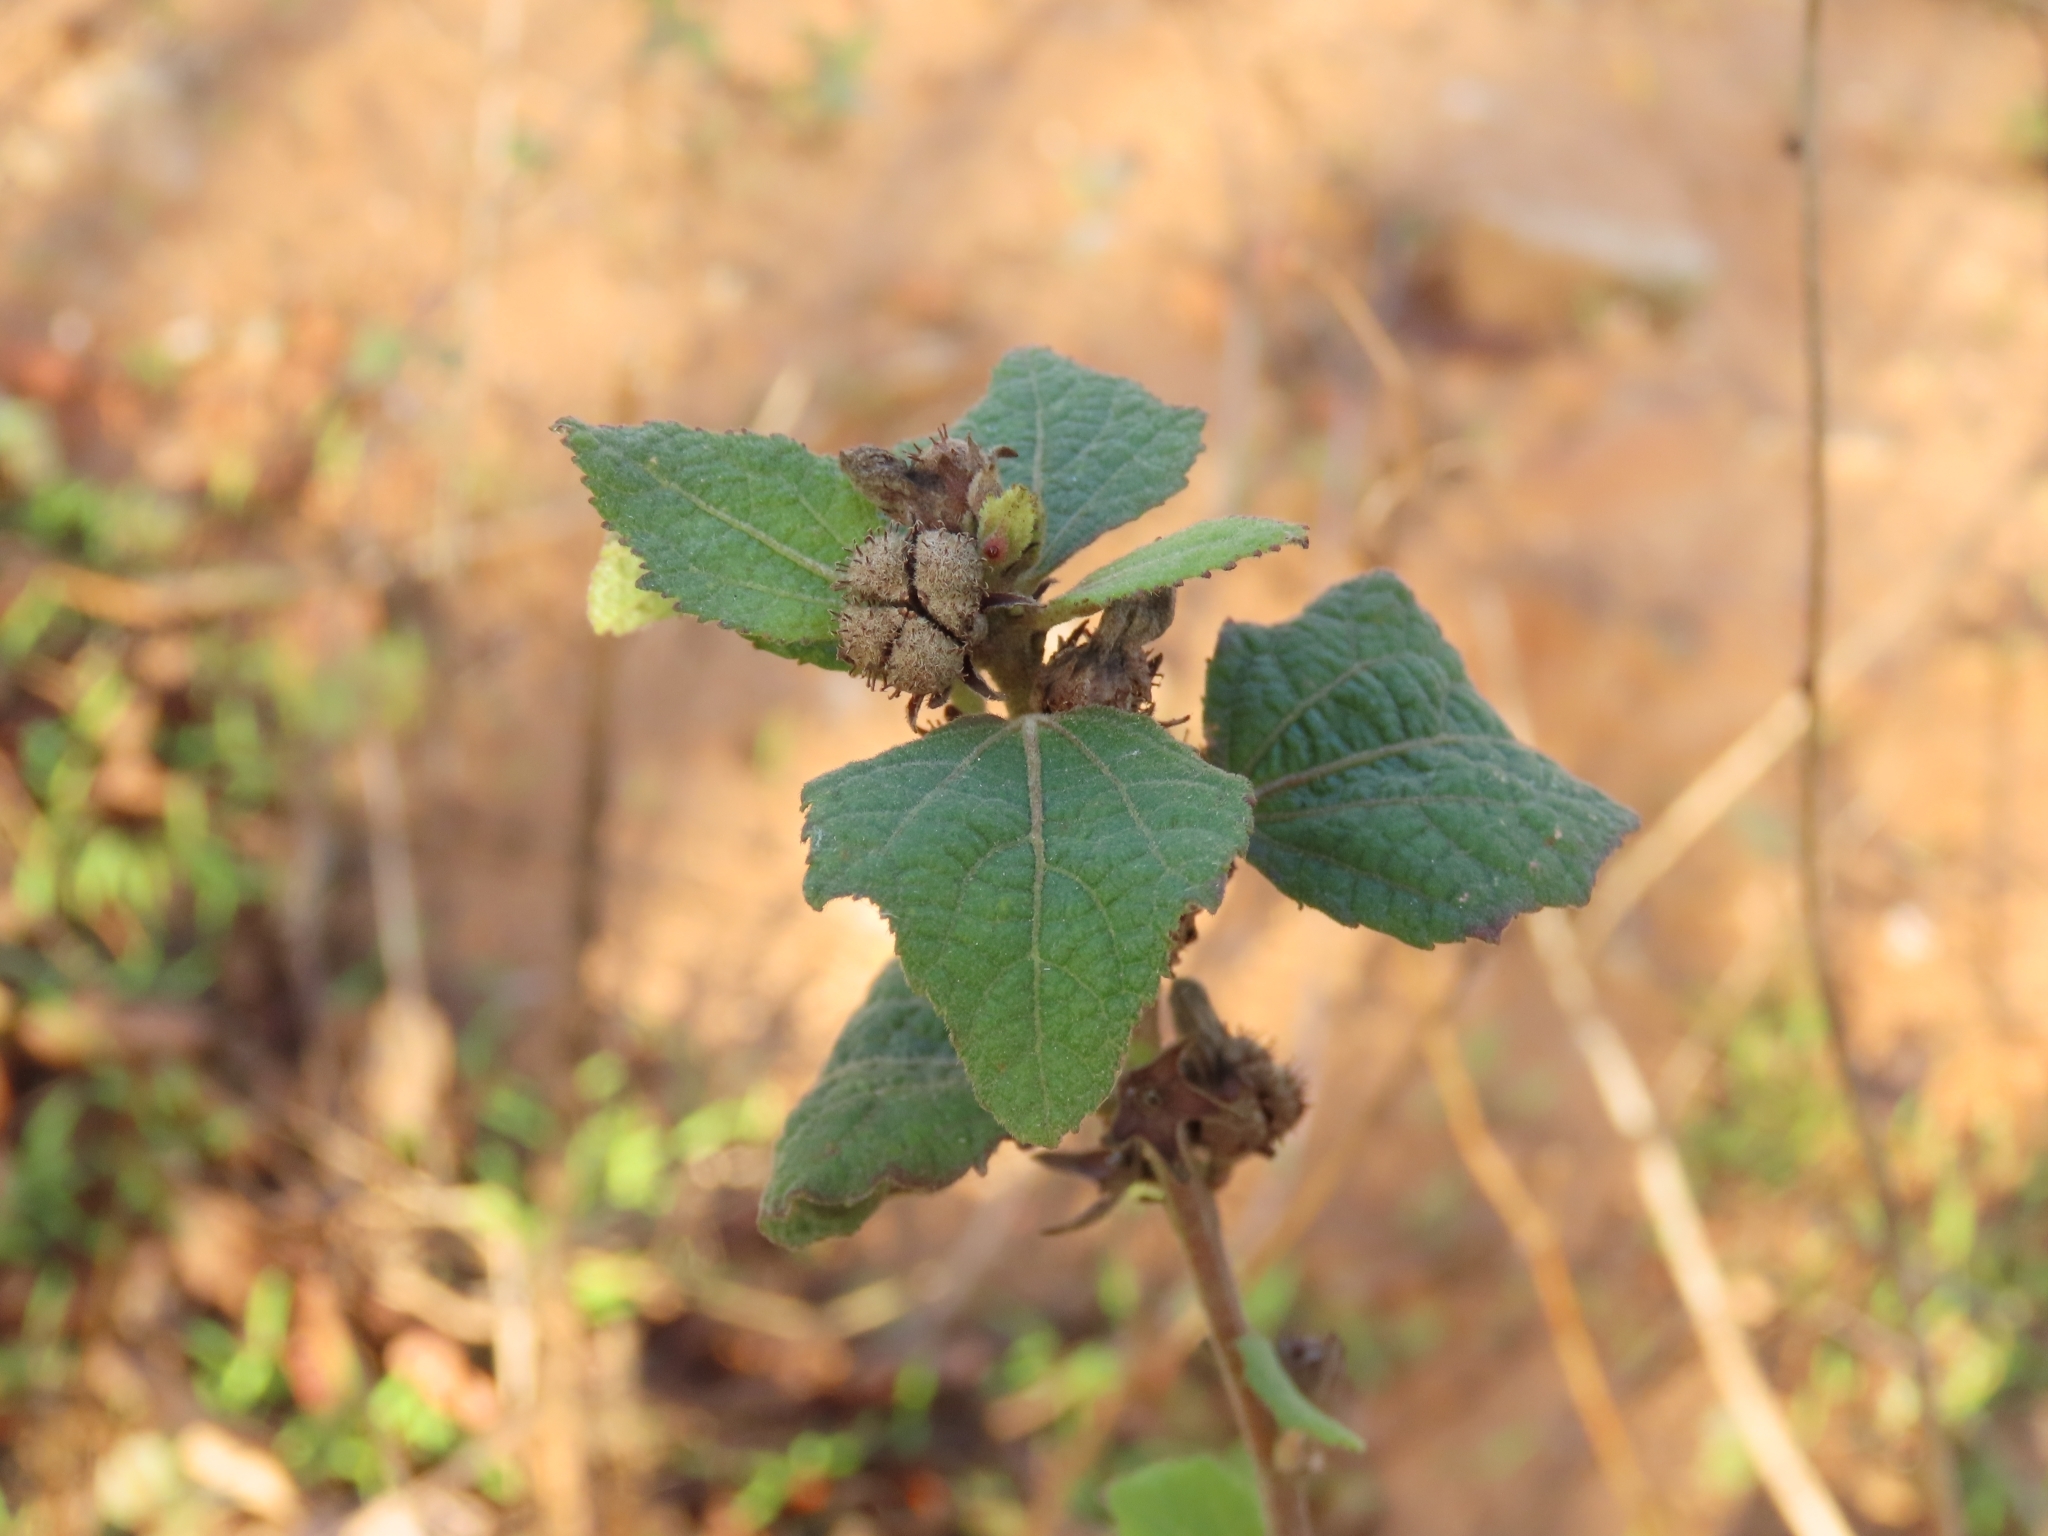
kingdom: Plantae
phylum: Tracheophyta
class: Magnoliopsida
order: Malvales
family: Malvaceae
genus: Urena
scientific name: Urena lobata
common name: Caesarweed
